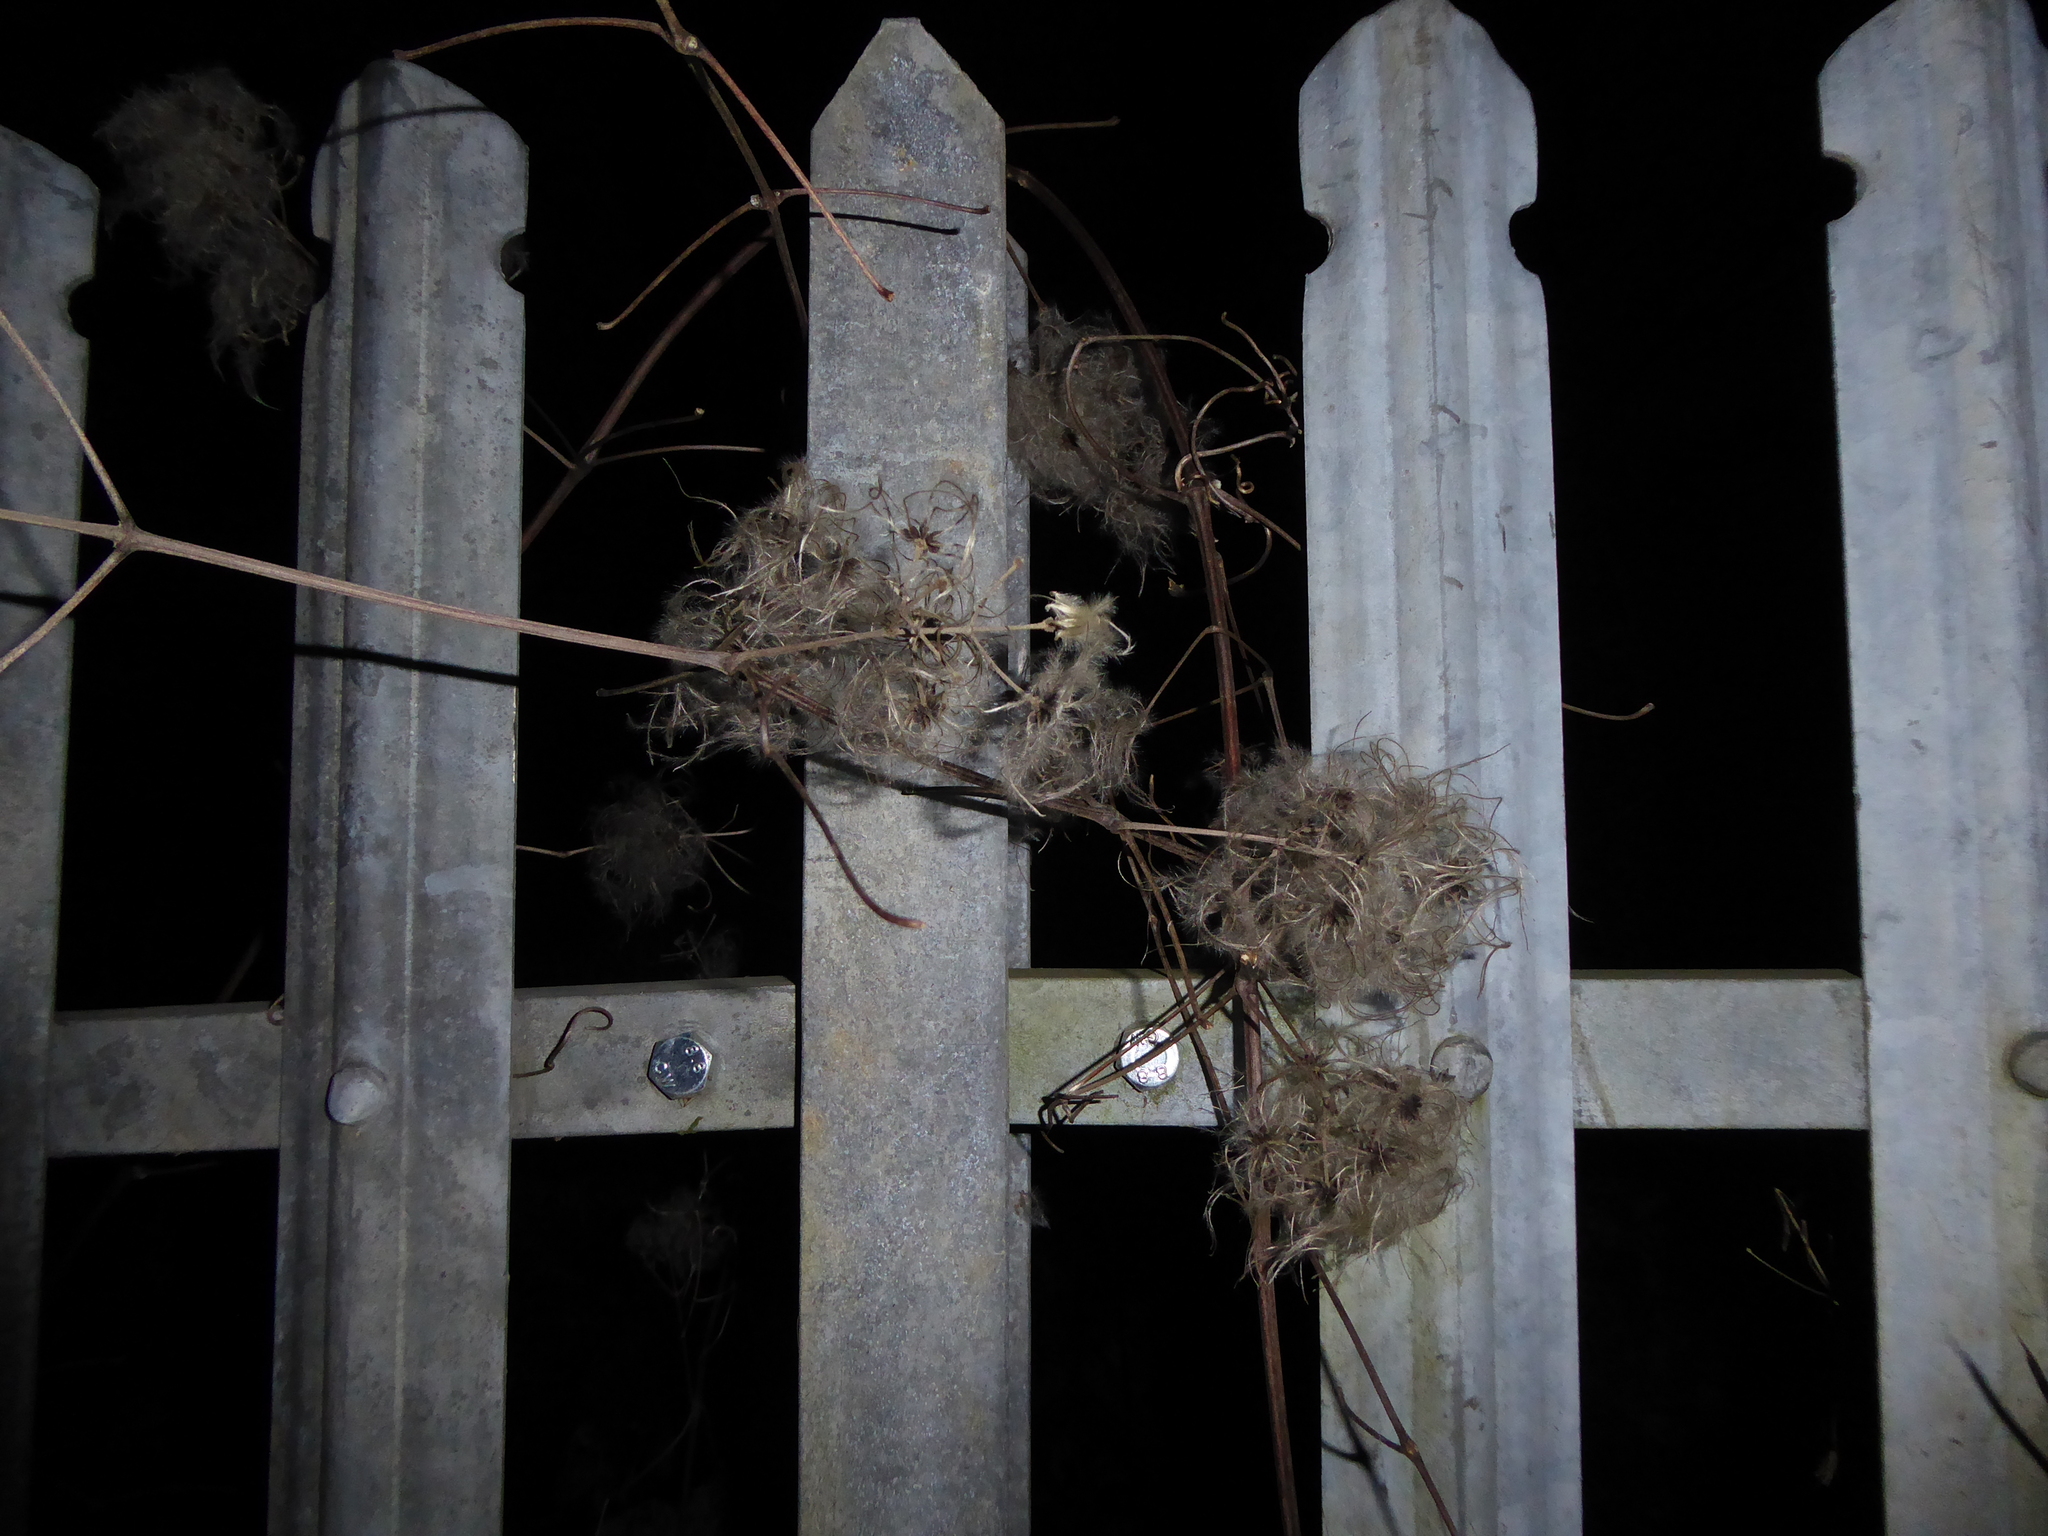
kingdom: Plantae
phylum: Tracheophyta
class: Magnoliopsida
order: Ranunculales
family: Ranunculaceae
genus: Clematis
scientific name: Clematis vitalba
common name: Evergreen clematis
